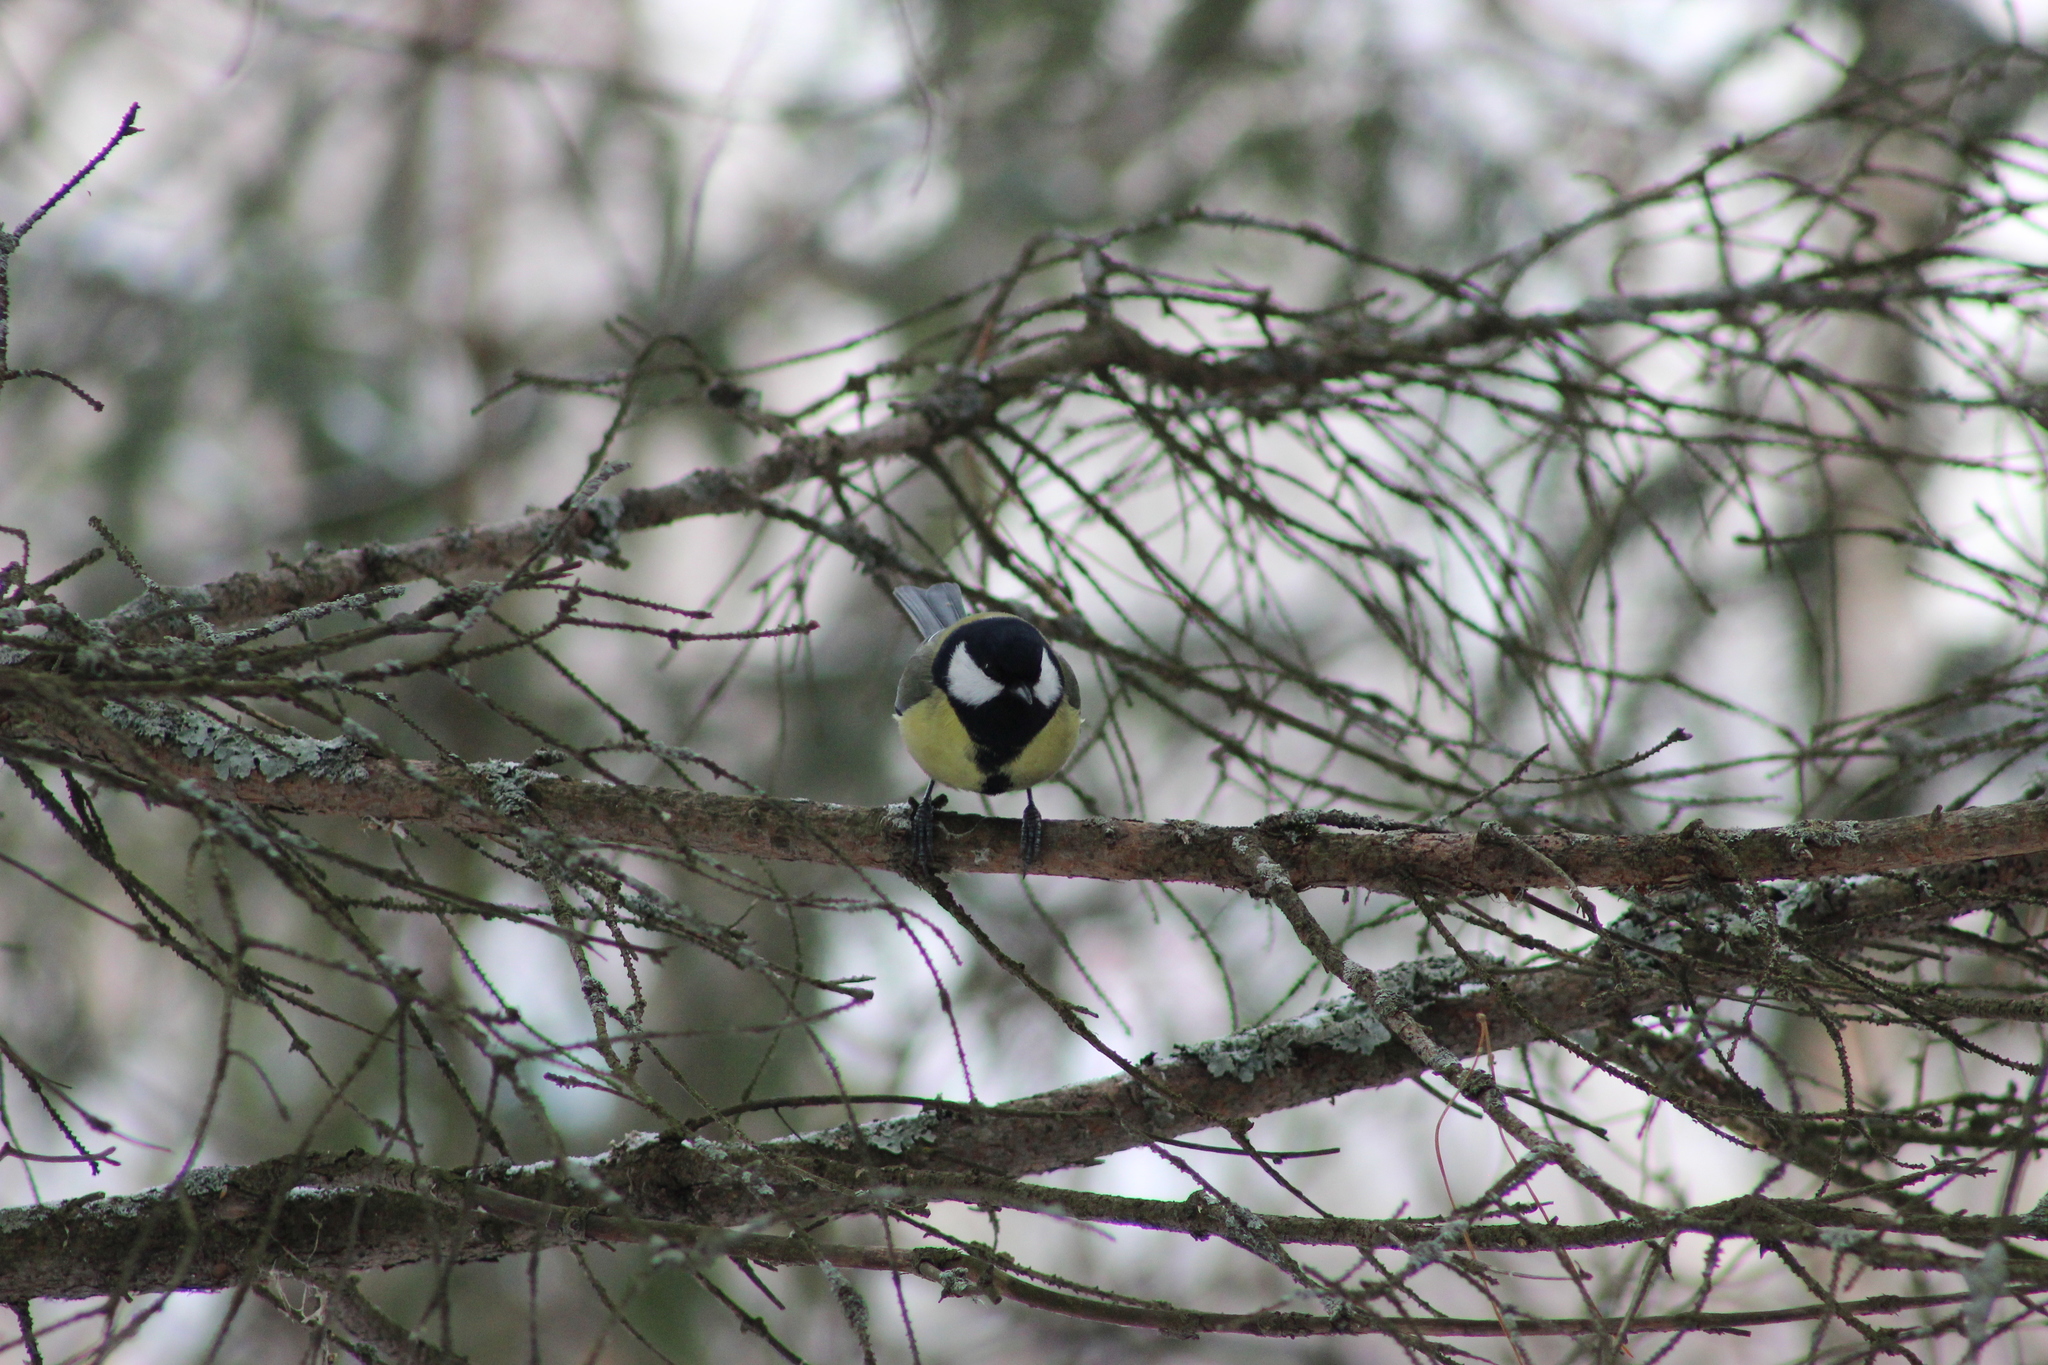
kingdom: Animalia
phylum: Chordata
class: Aves
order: Passeriformes
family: Paridae
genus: Parus
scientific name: Parus major
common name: Great tit
